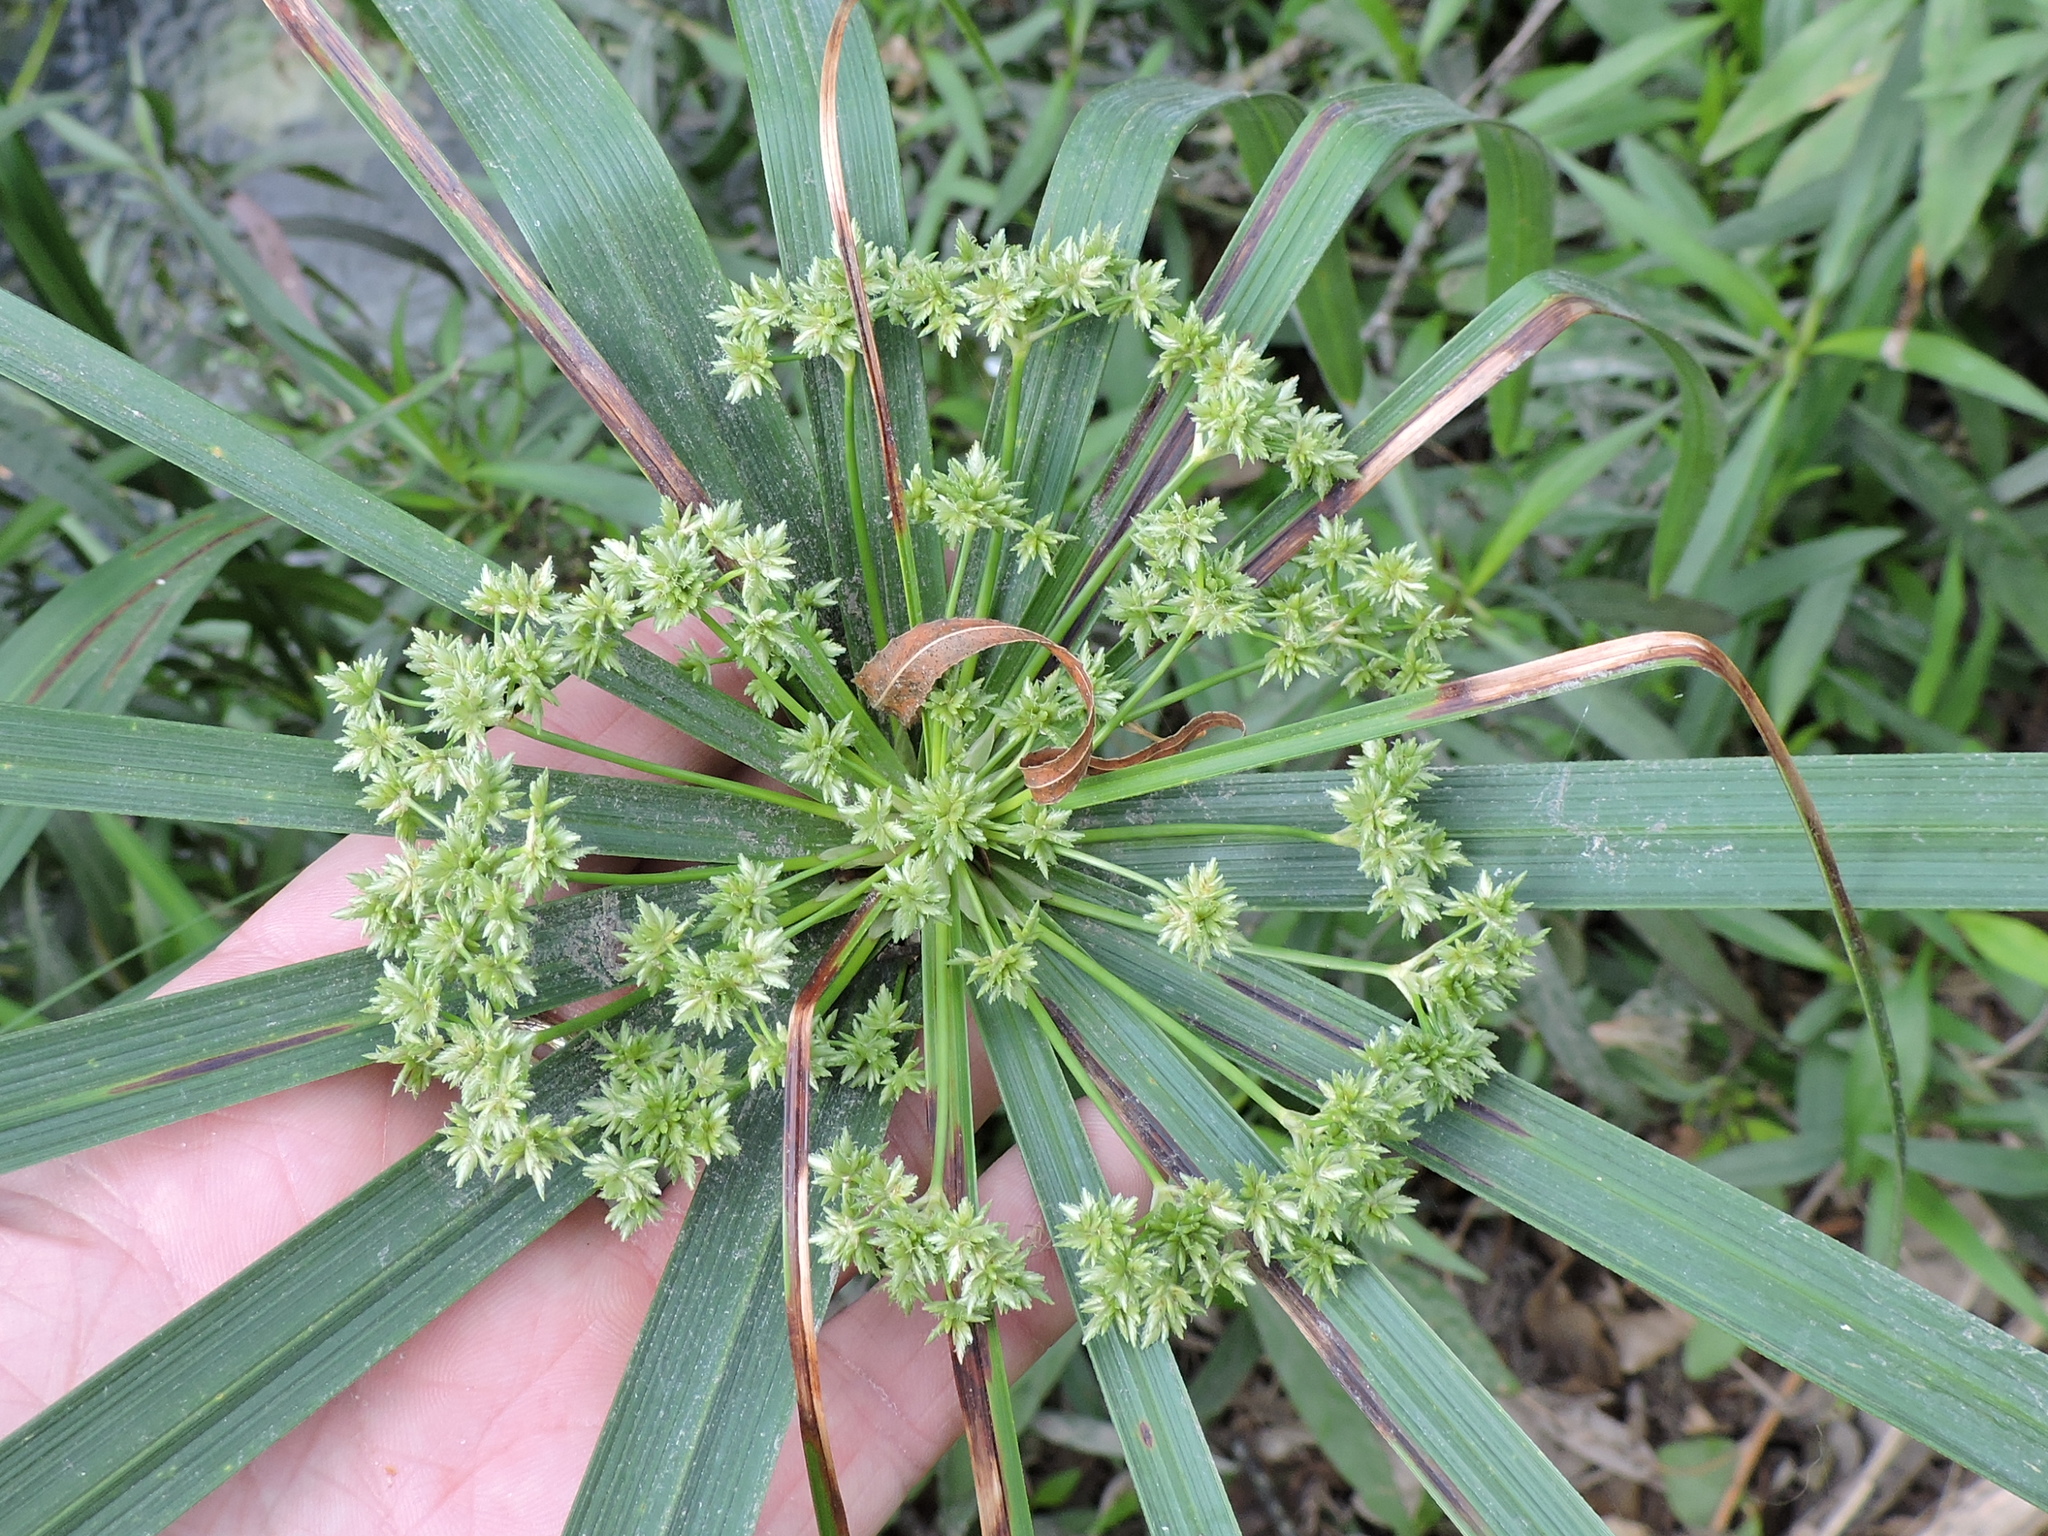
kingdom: Plantae
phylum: Tracheophyta
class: Liliopsida
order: Poales
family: Cyperaceae
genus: Cyperus
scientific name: Cyperus alternifolius
